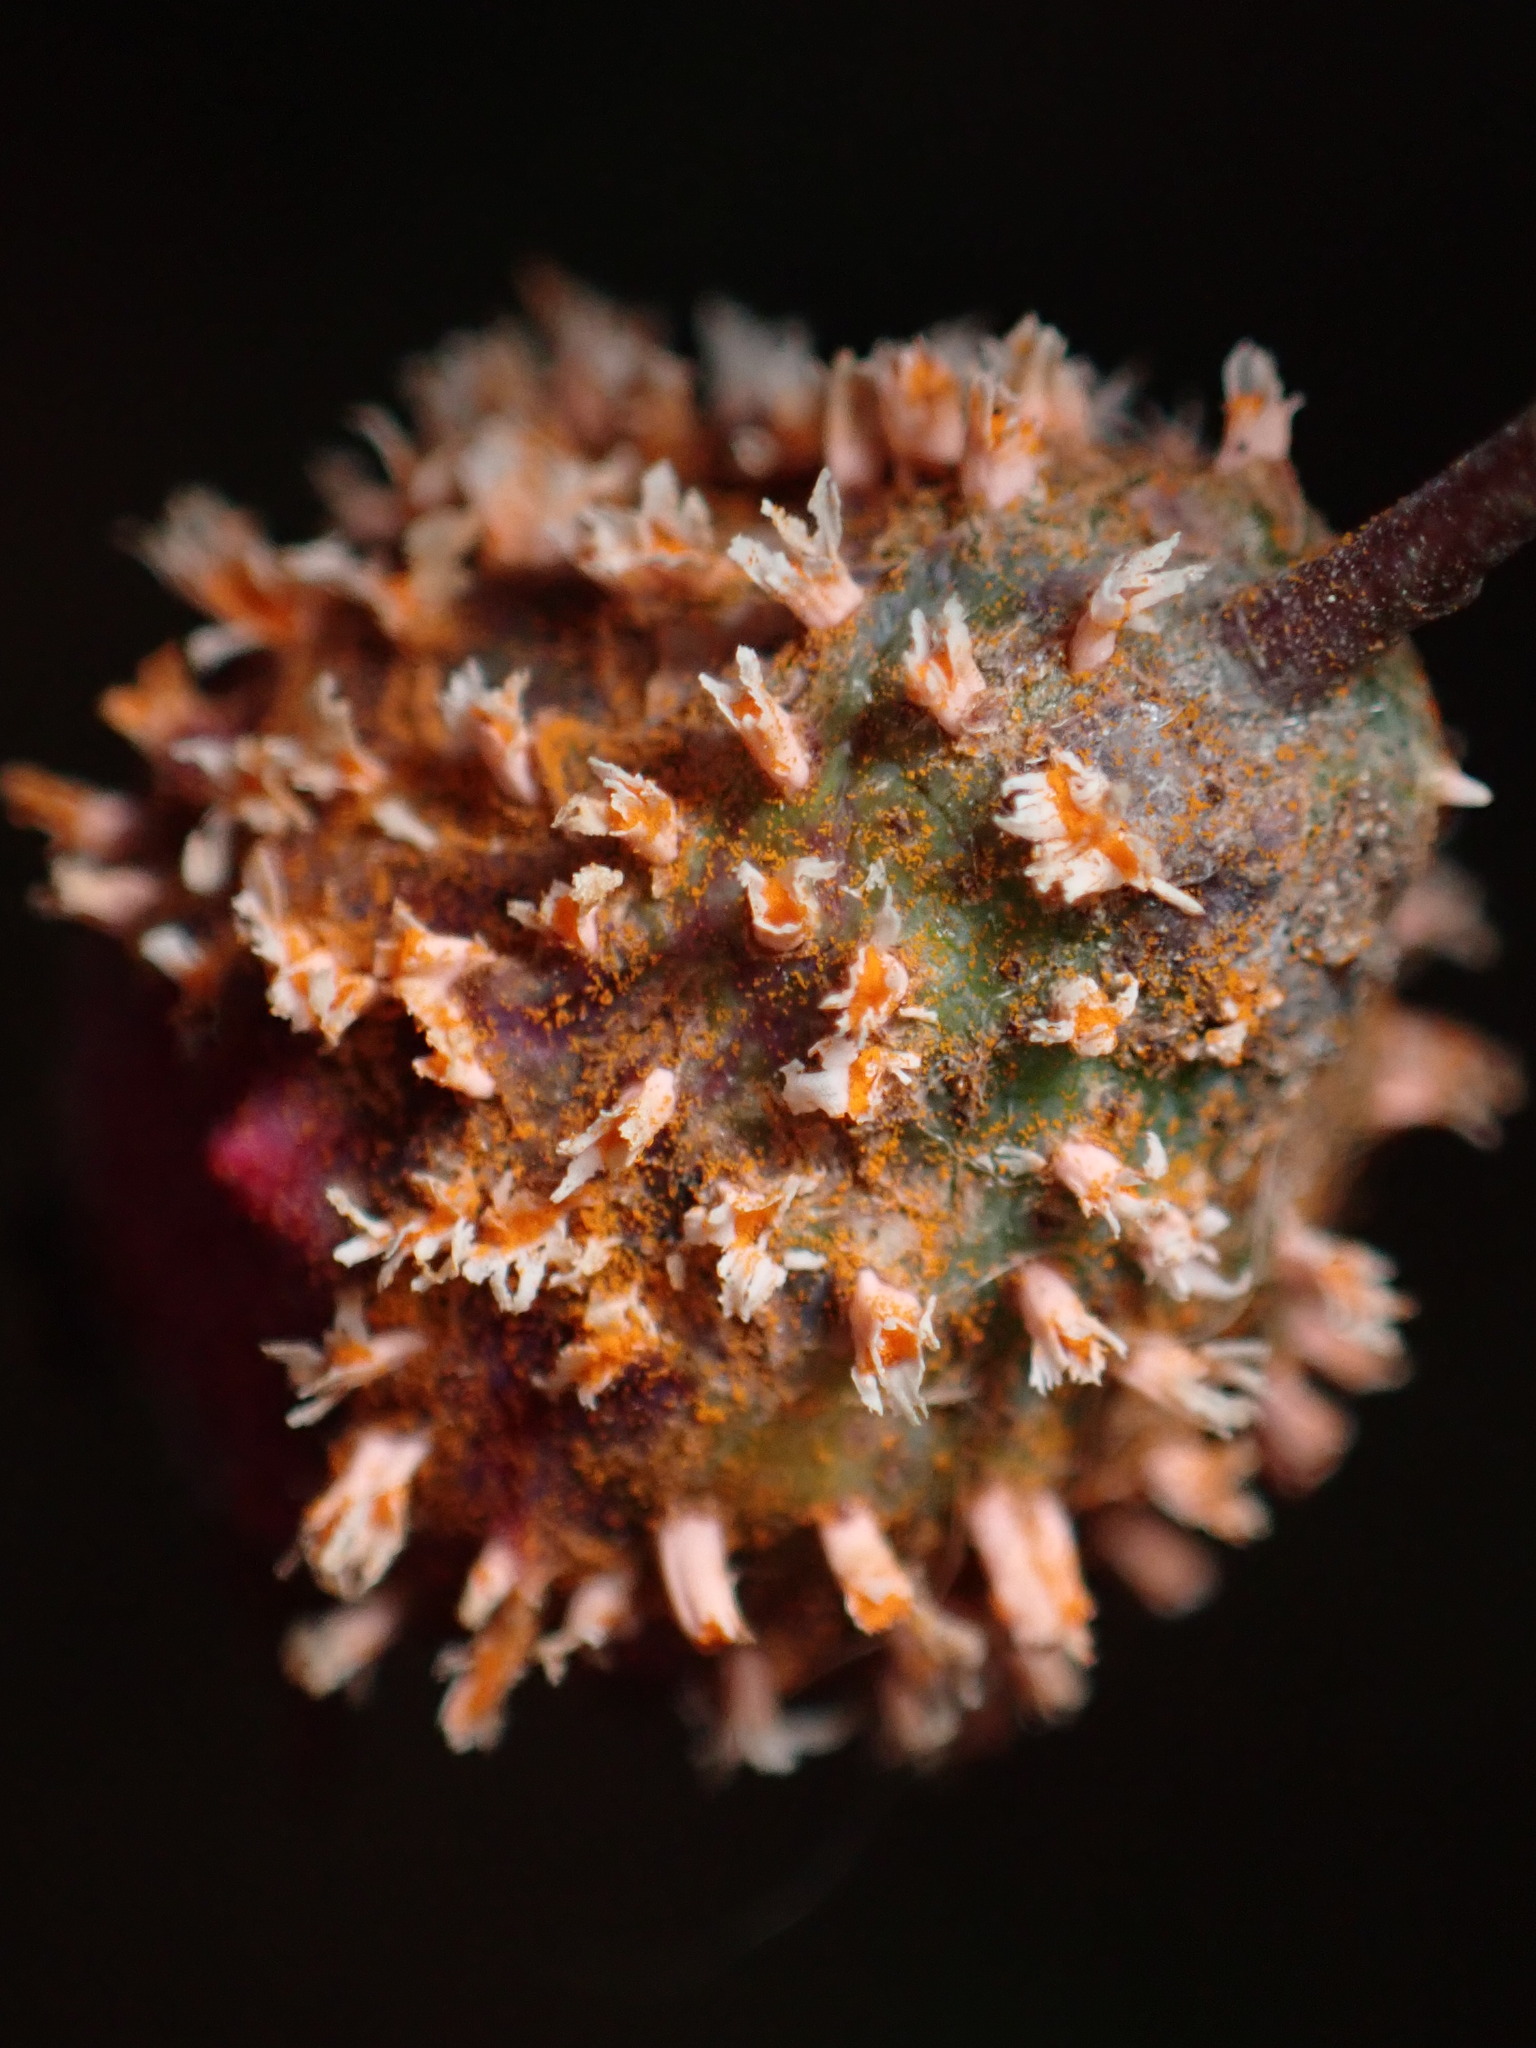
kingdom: Fungi
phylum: Basidiomycota
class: Pucciniomycetes
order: Pucciniales
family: Gymnosporangiaceae
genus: Gymnosporangium
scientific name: Gymnosporangium juniperi-virginianae
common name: Juniper-apple rust
